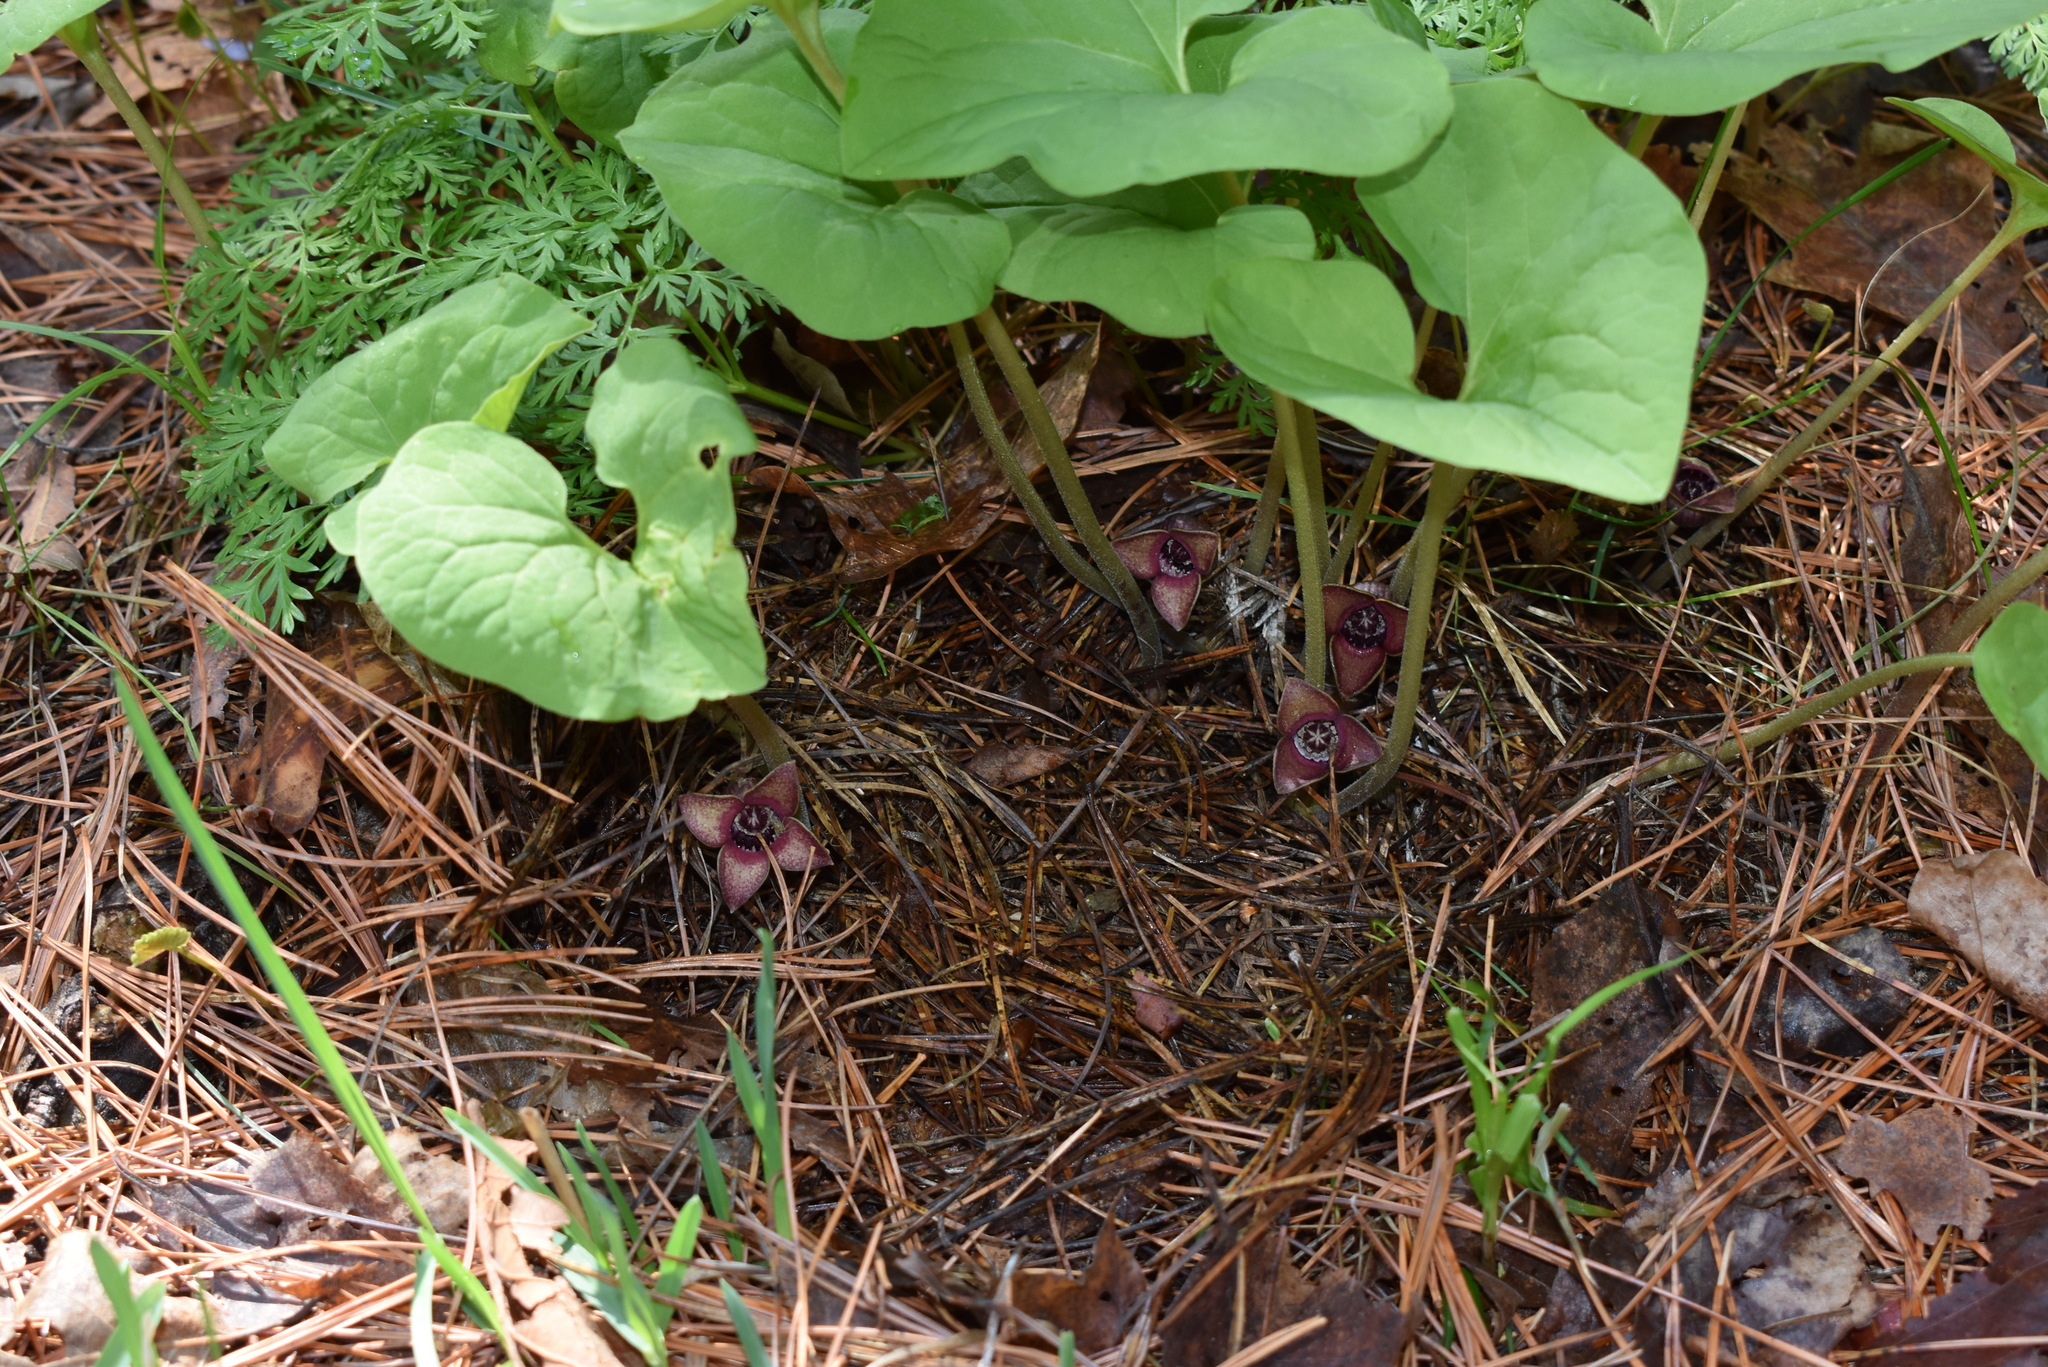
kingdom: Plantae
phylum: Tracheophyta
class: Magnoliopsida
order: Piperales
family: Aristolochiaceae
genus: Asarum
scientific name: Asarum sieboldii
